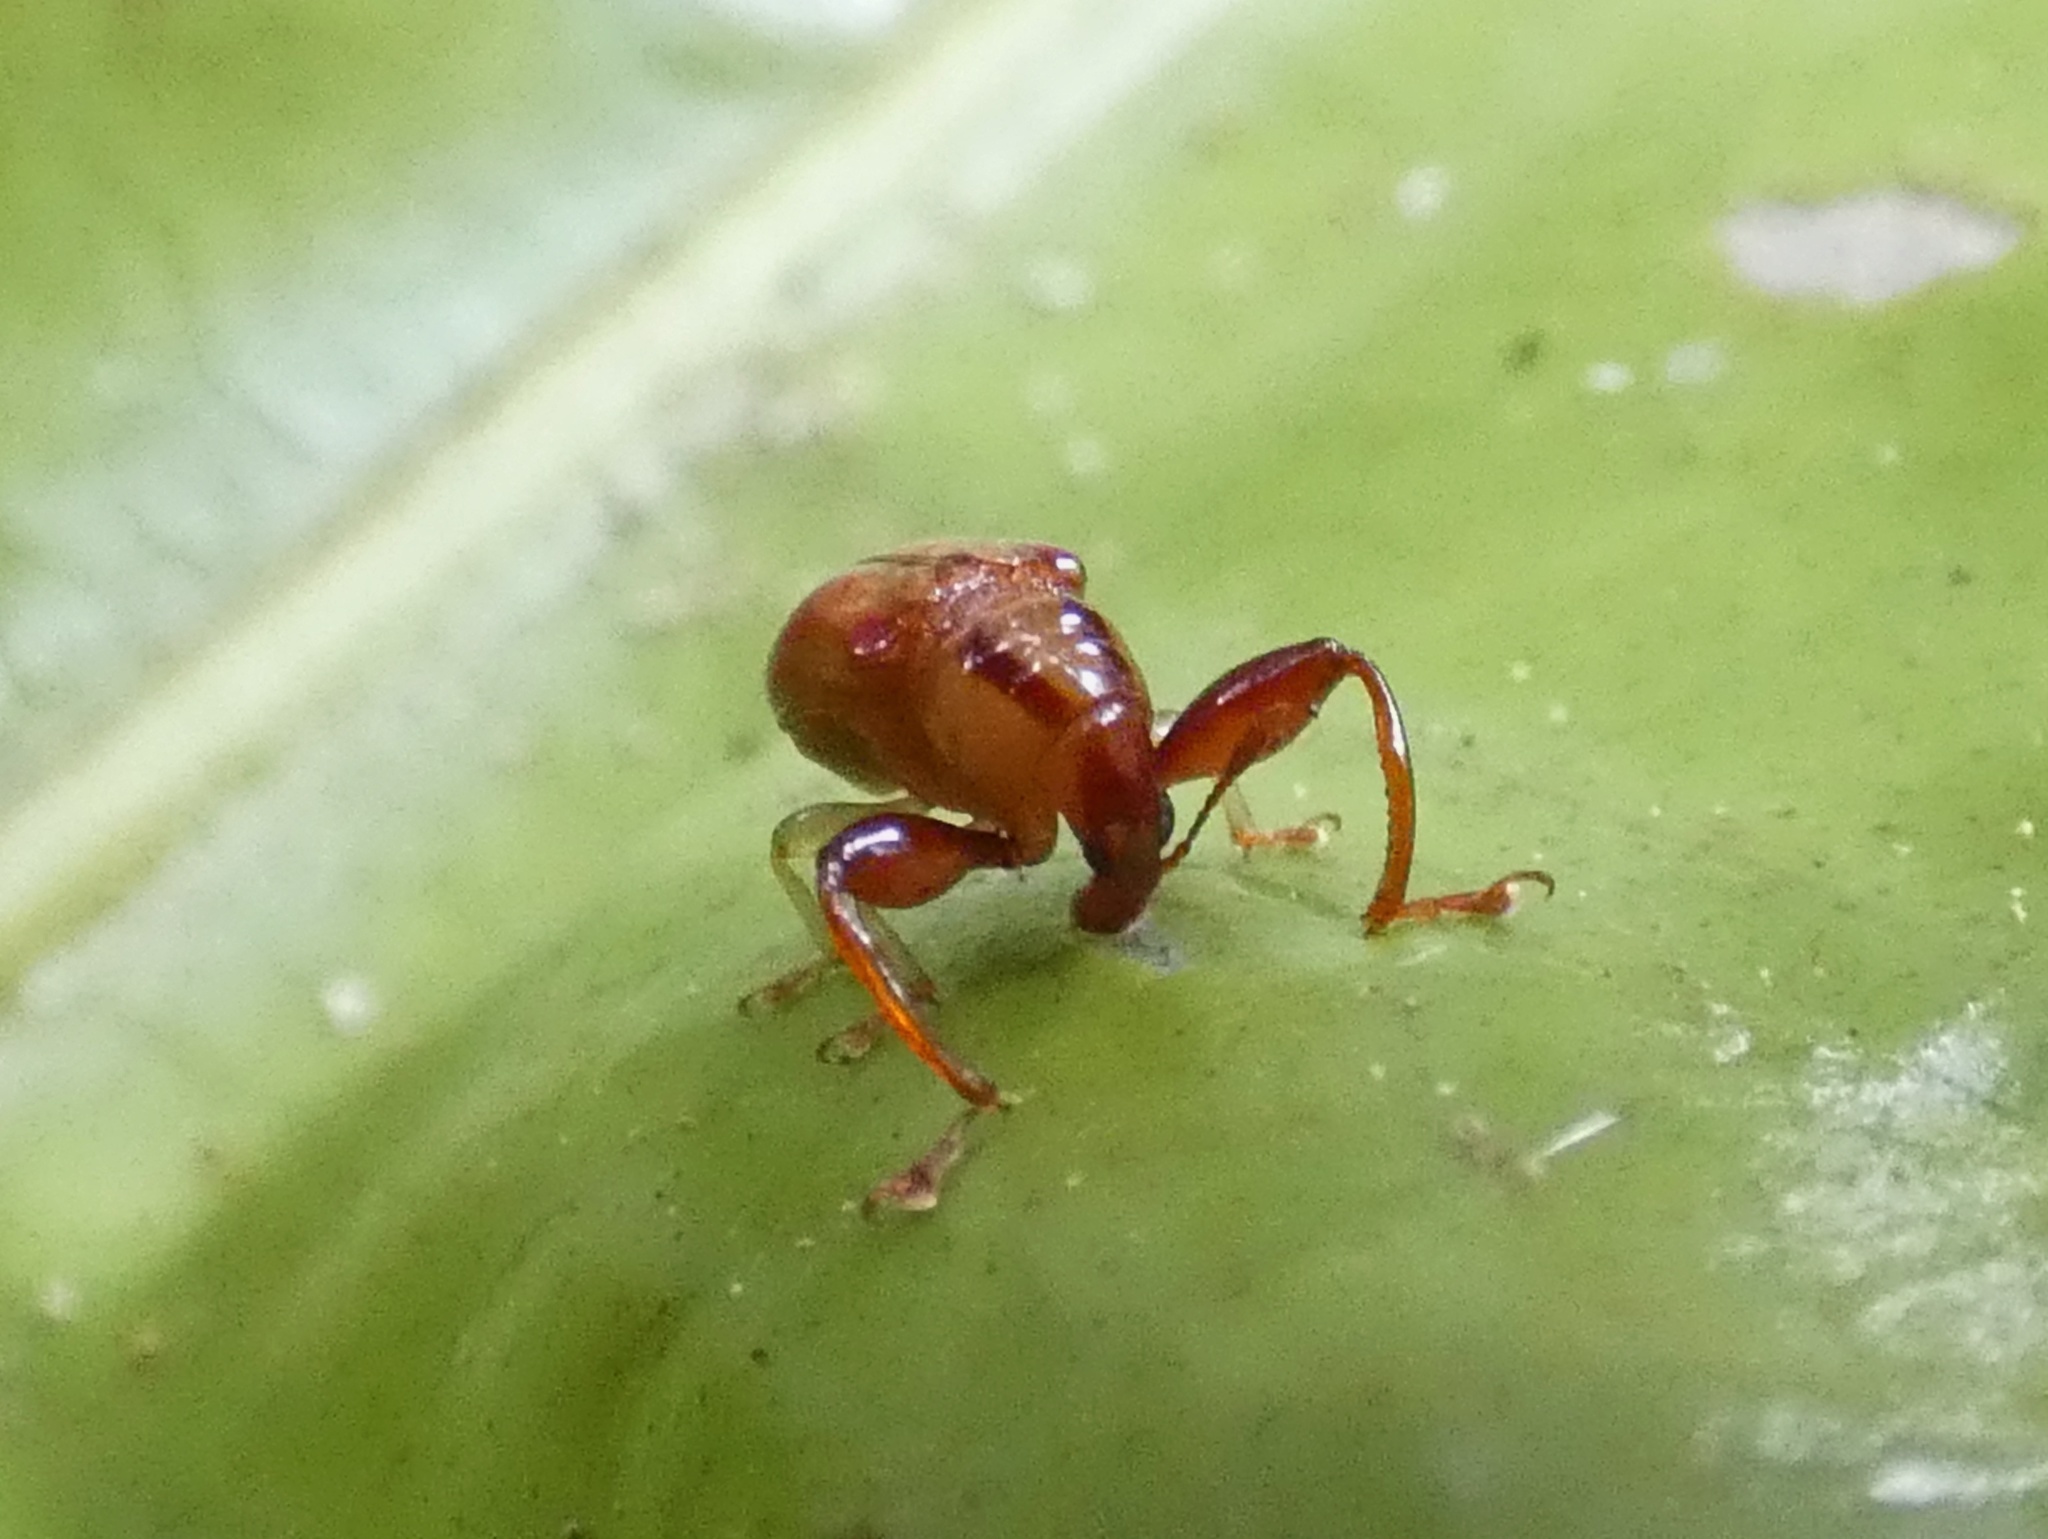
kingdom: Animalia
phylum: Arthropoda
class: Insecta
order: Coleoptera
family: Attelabidae
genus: Euscelus
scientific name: Euscelus
